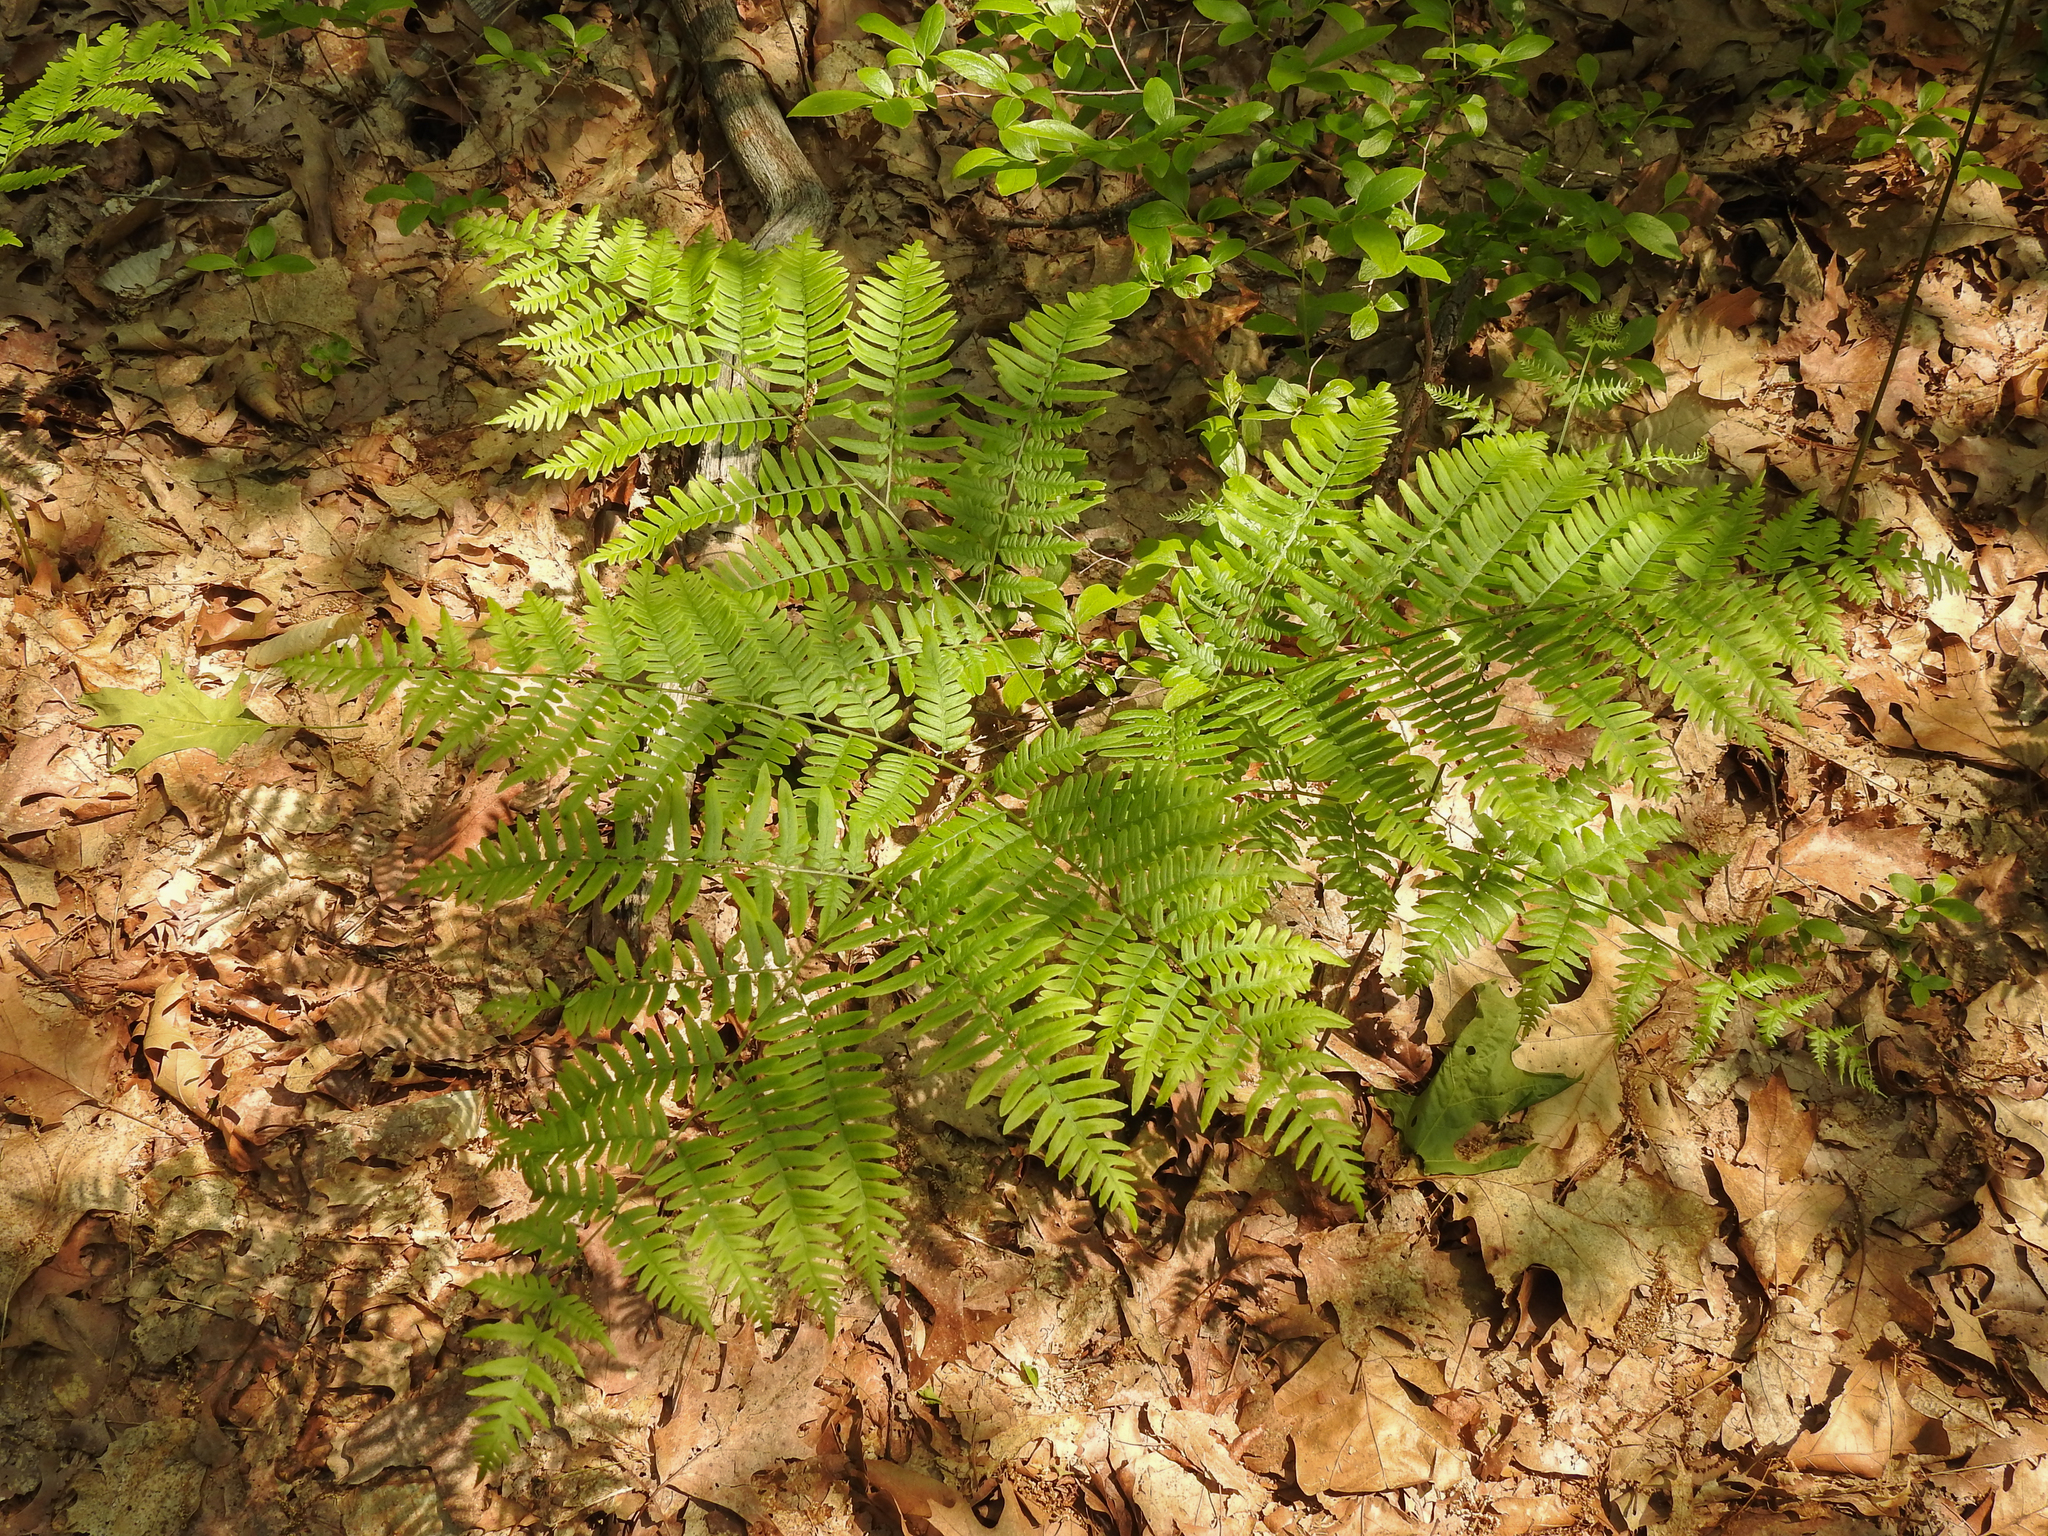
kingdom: Plantae
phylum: Tracheophyta
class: Polypodiopsida
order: Polypodiales
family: Dennstaedtiaceae
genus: Pteridium
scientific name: Pteridium aquilinum
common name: Bracken
